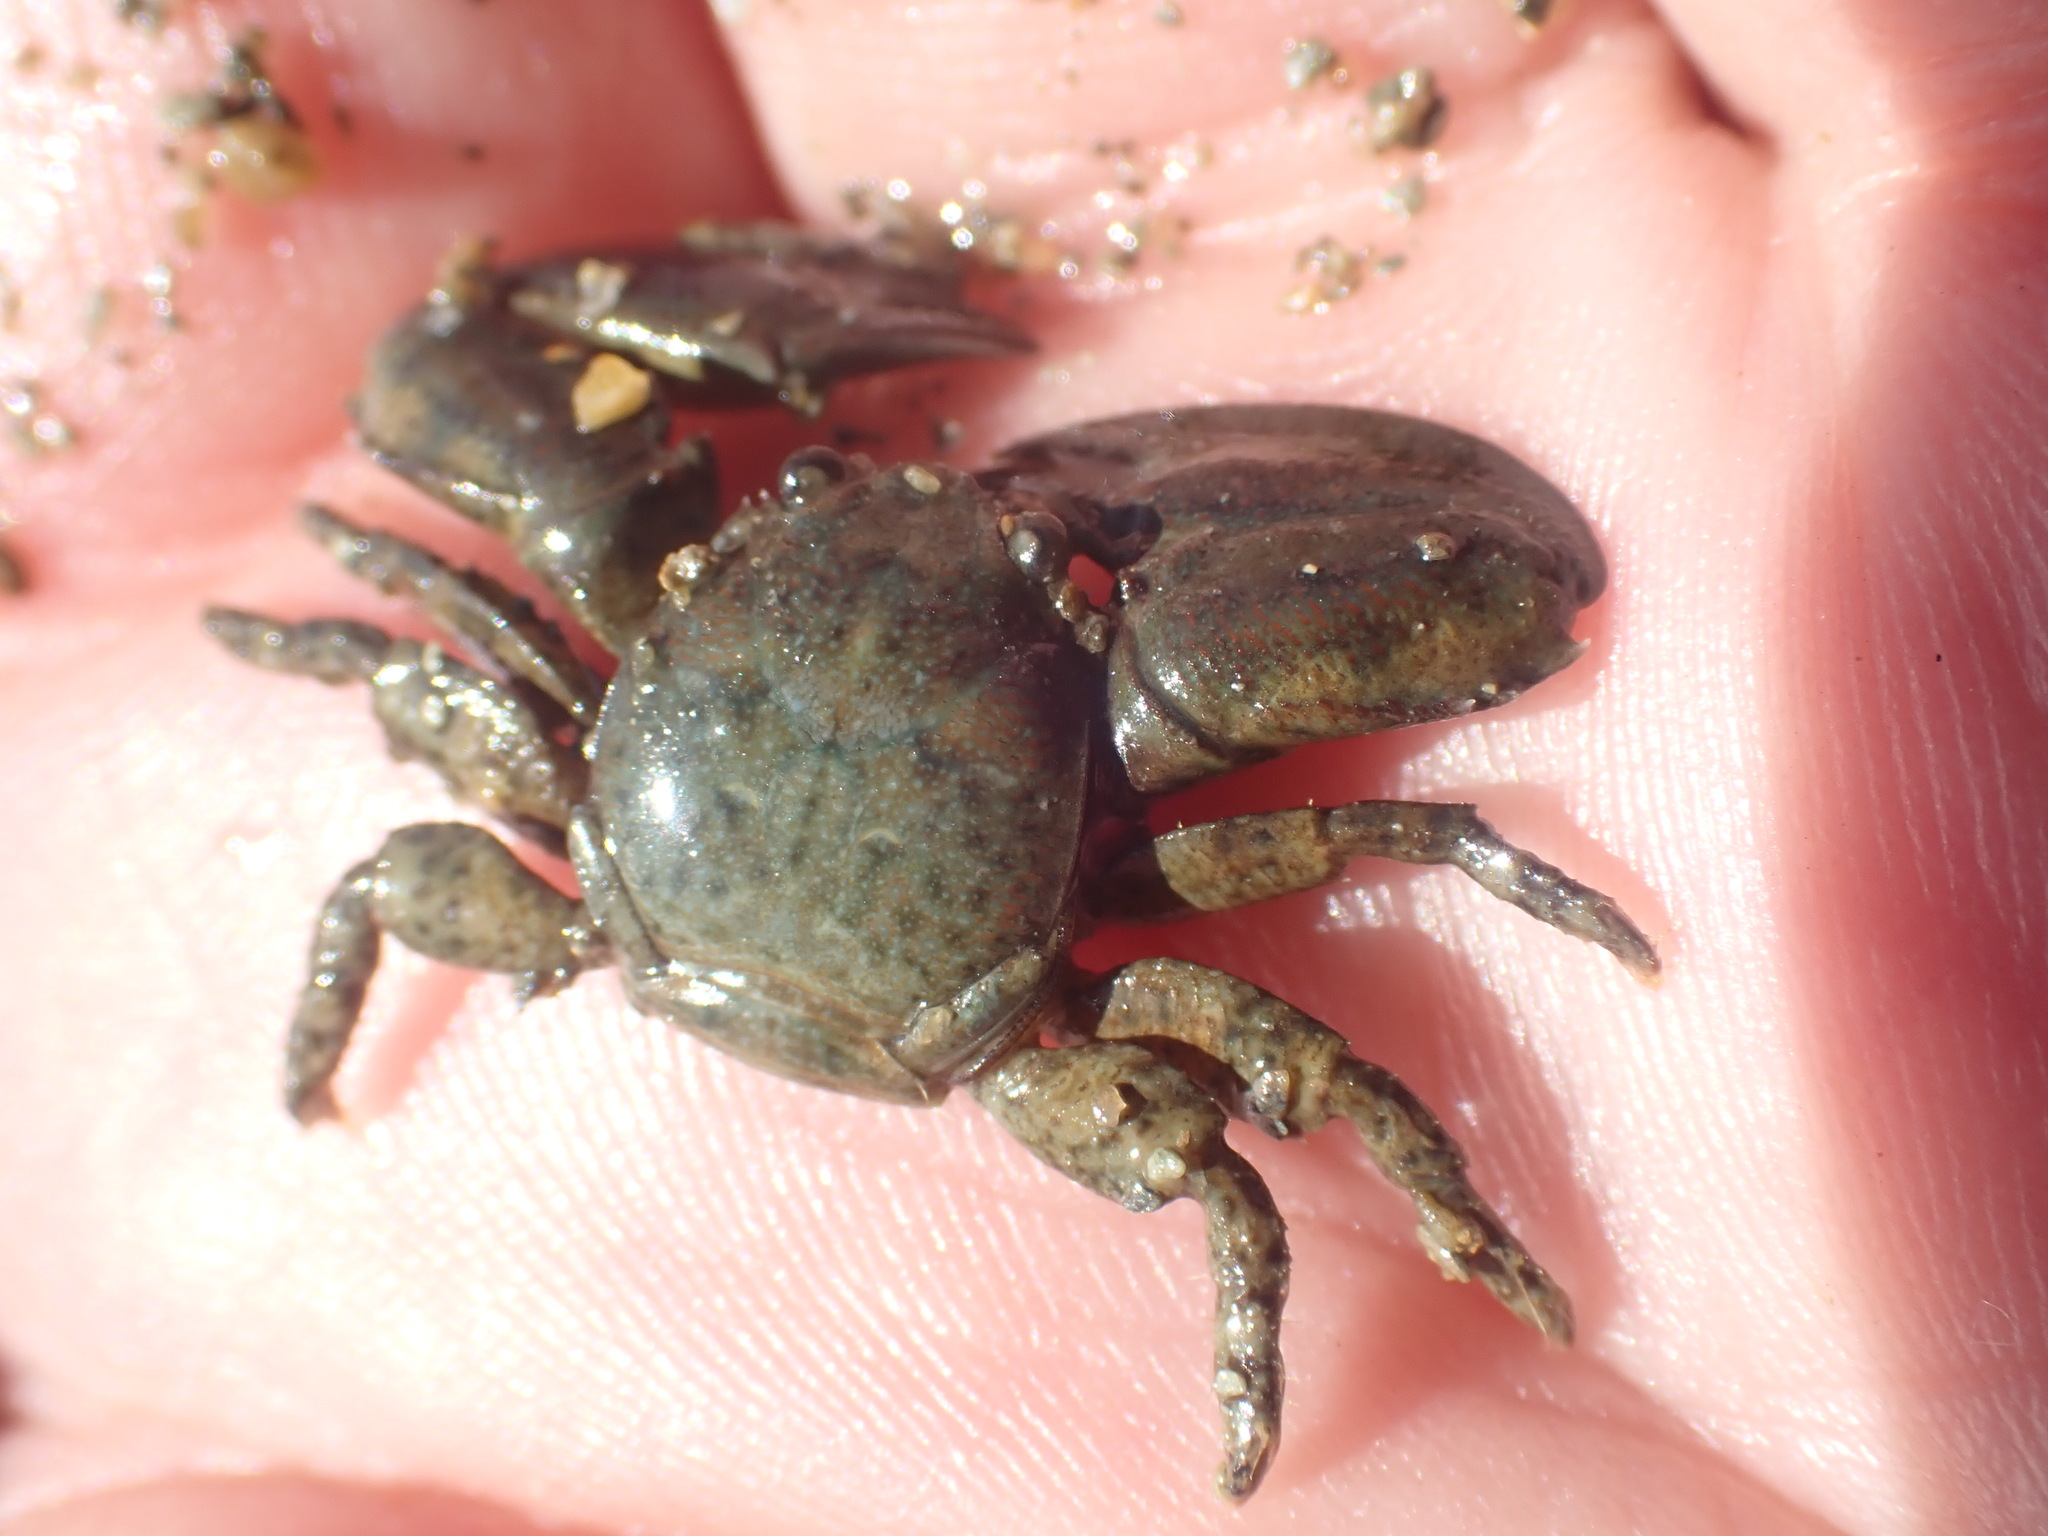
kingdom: Animalia
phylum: Arthropoda
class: Malacostraca
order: Decapoda
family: Porcellanidae
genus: Petrolisthes
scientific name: Petrolisthes elongatus
